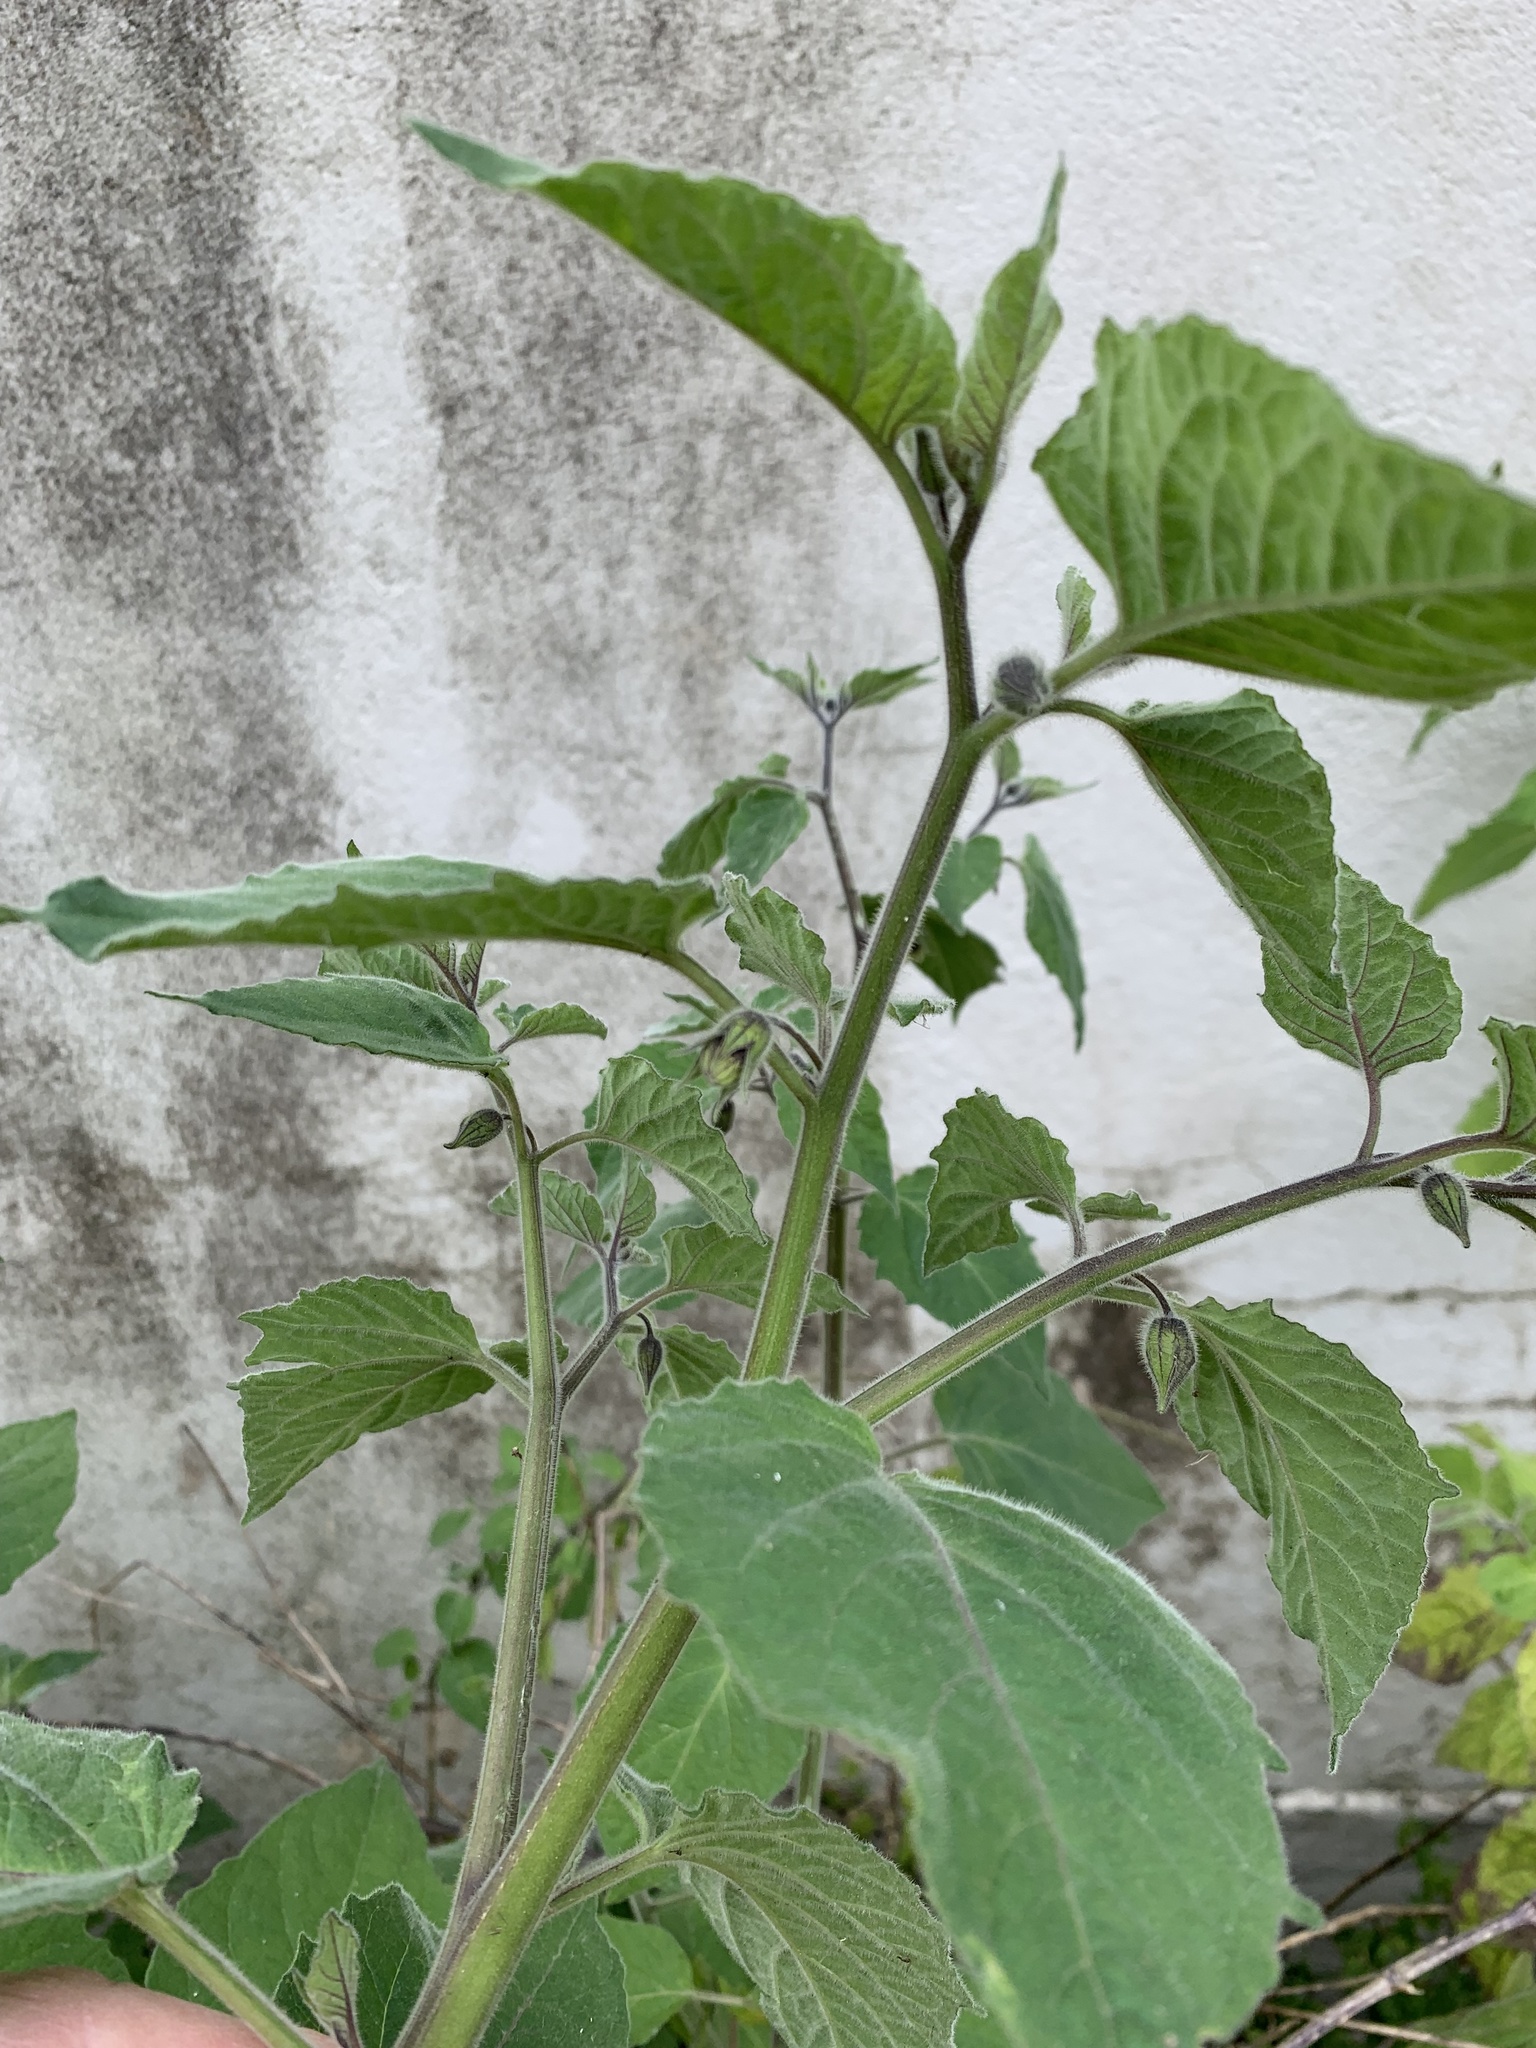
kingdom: Plantae
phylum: Tracheophyta
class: Magnoliopsida
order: Solanales
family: Solanaceae
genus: Physalis
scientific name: Physalis peruviana
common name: Cape-gooseberry
